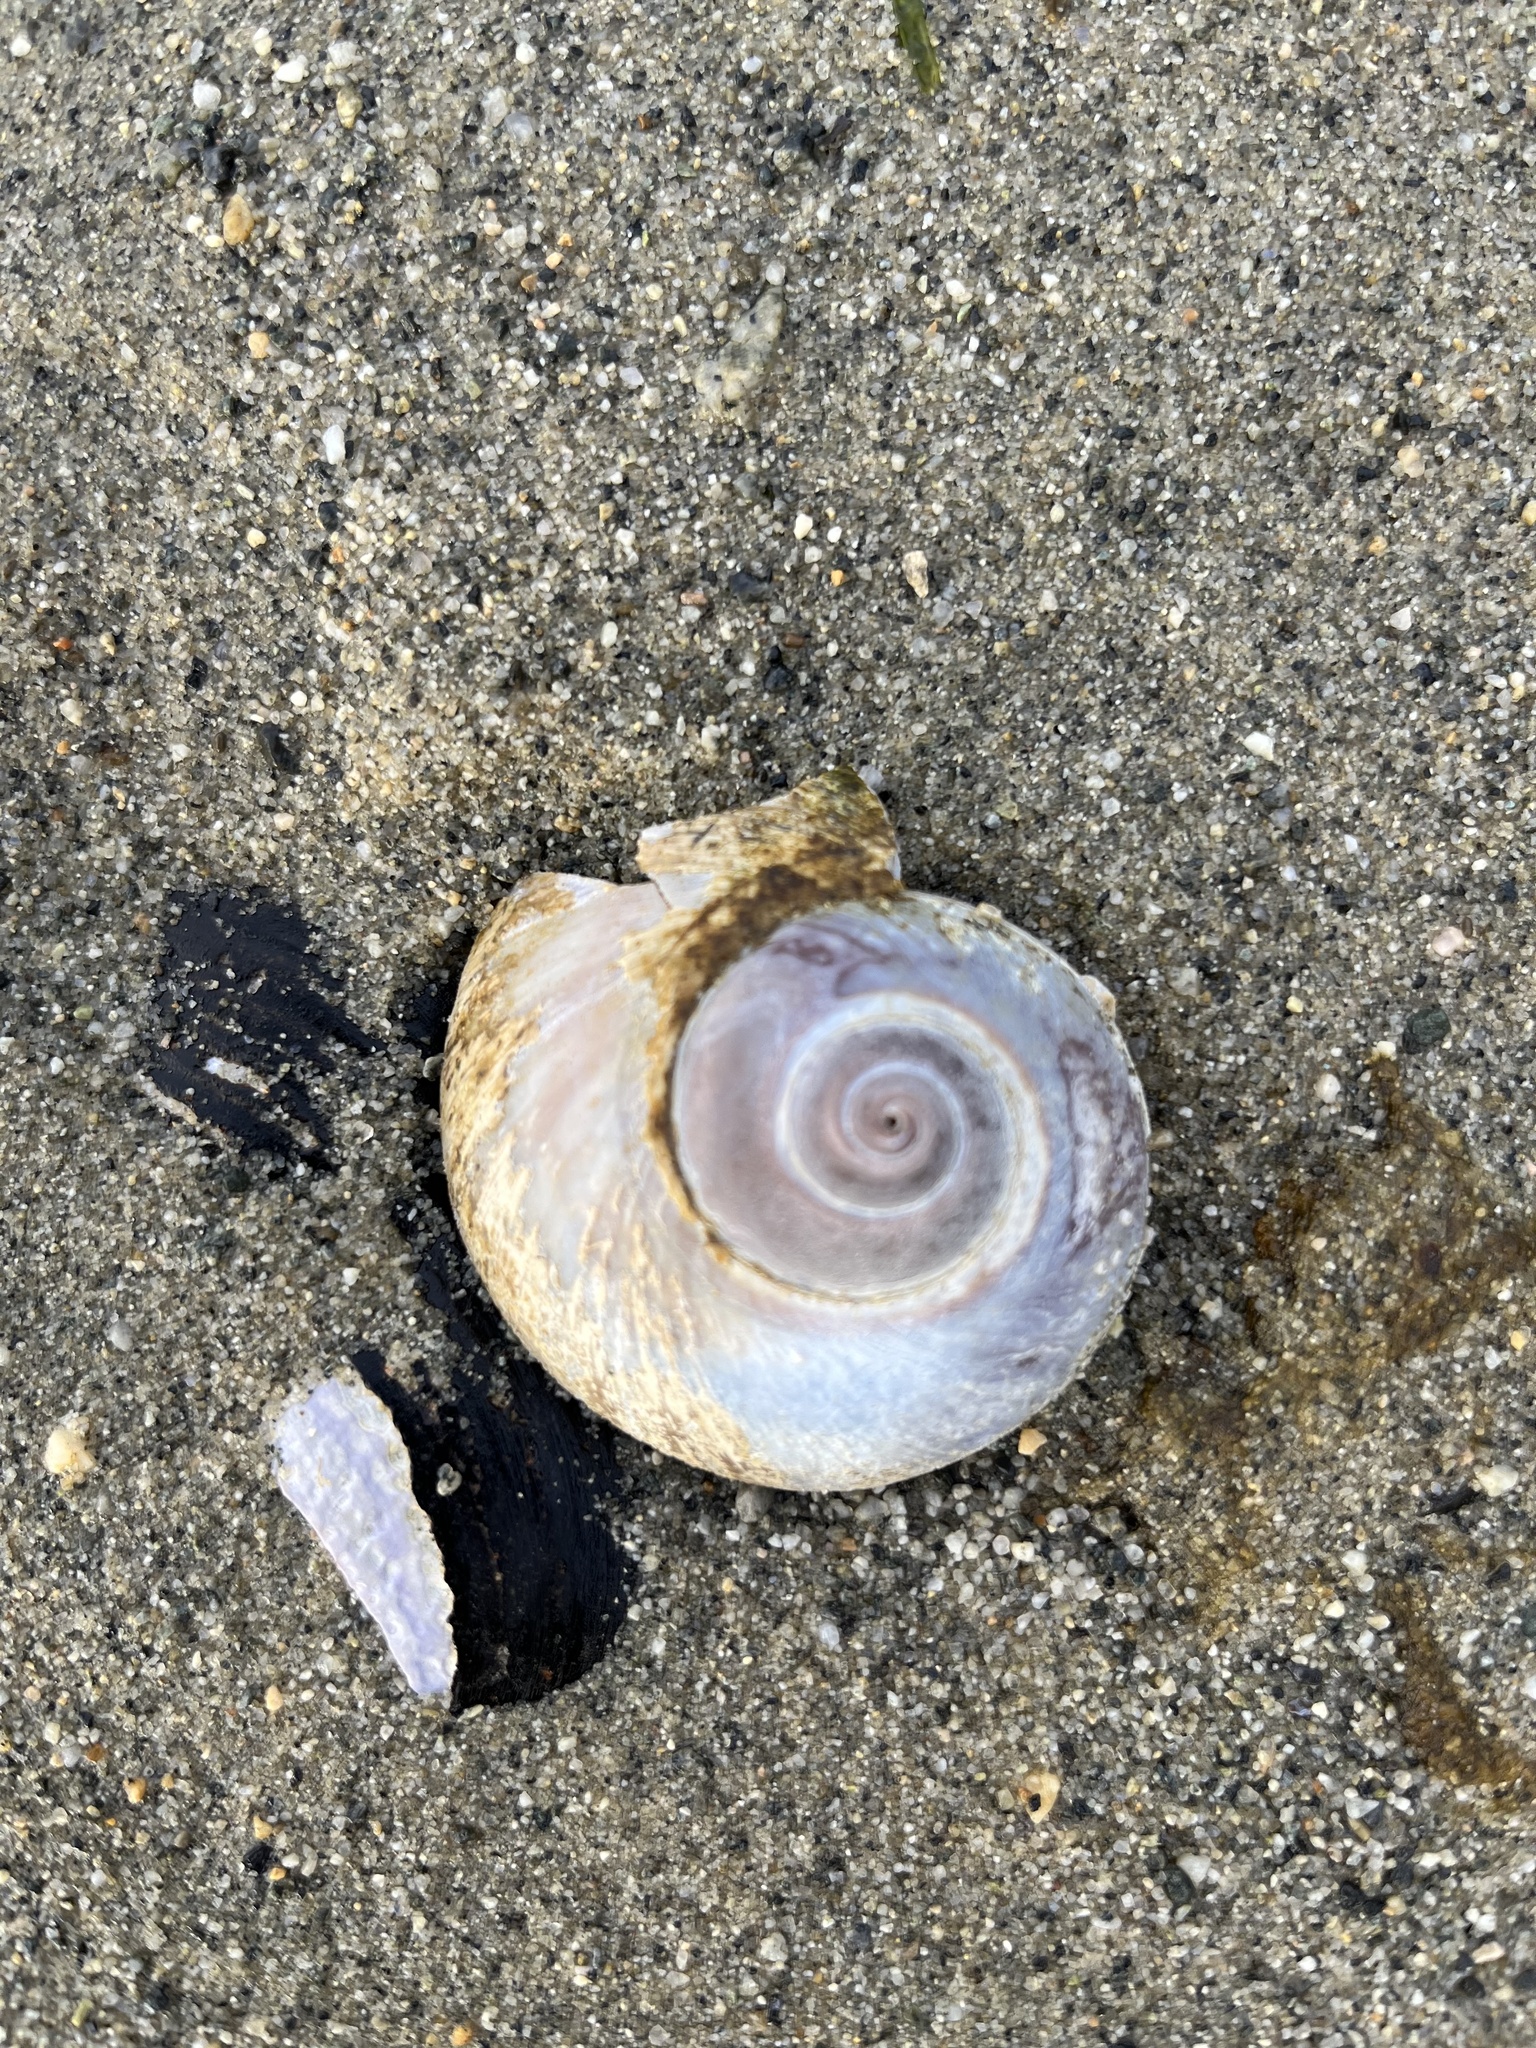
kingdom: Animalia
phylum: Mollusca
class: Gastropoda
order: Littorinimorpha
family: Naticidae
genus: Neverita
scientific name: Neverita lewisii
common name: Lewis' moonsnail
